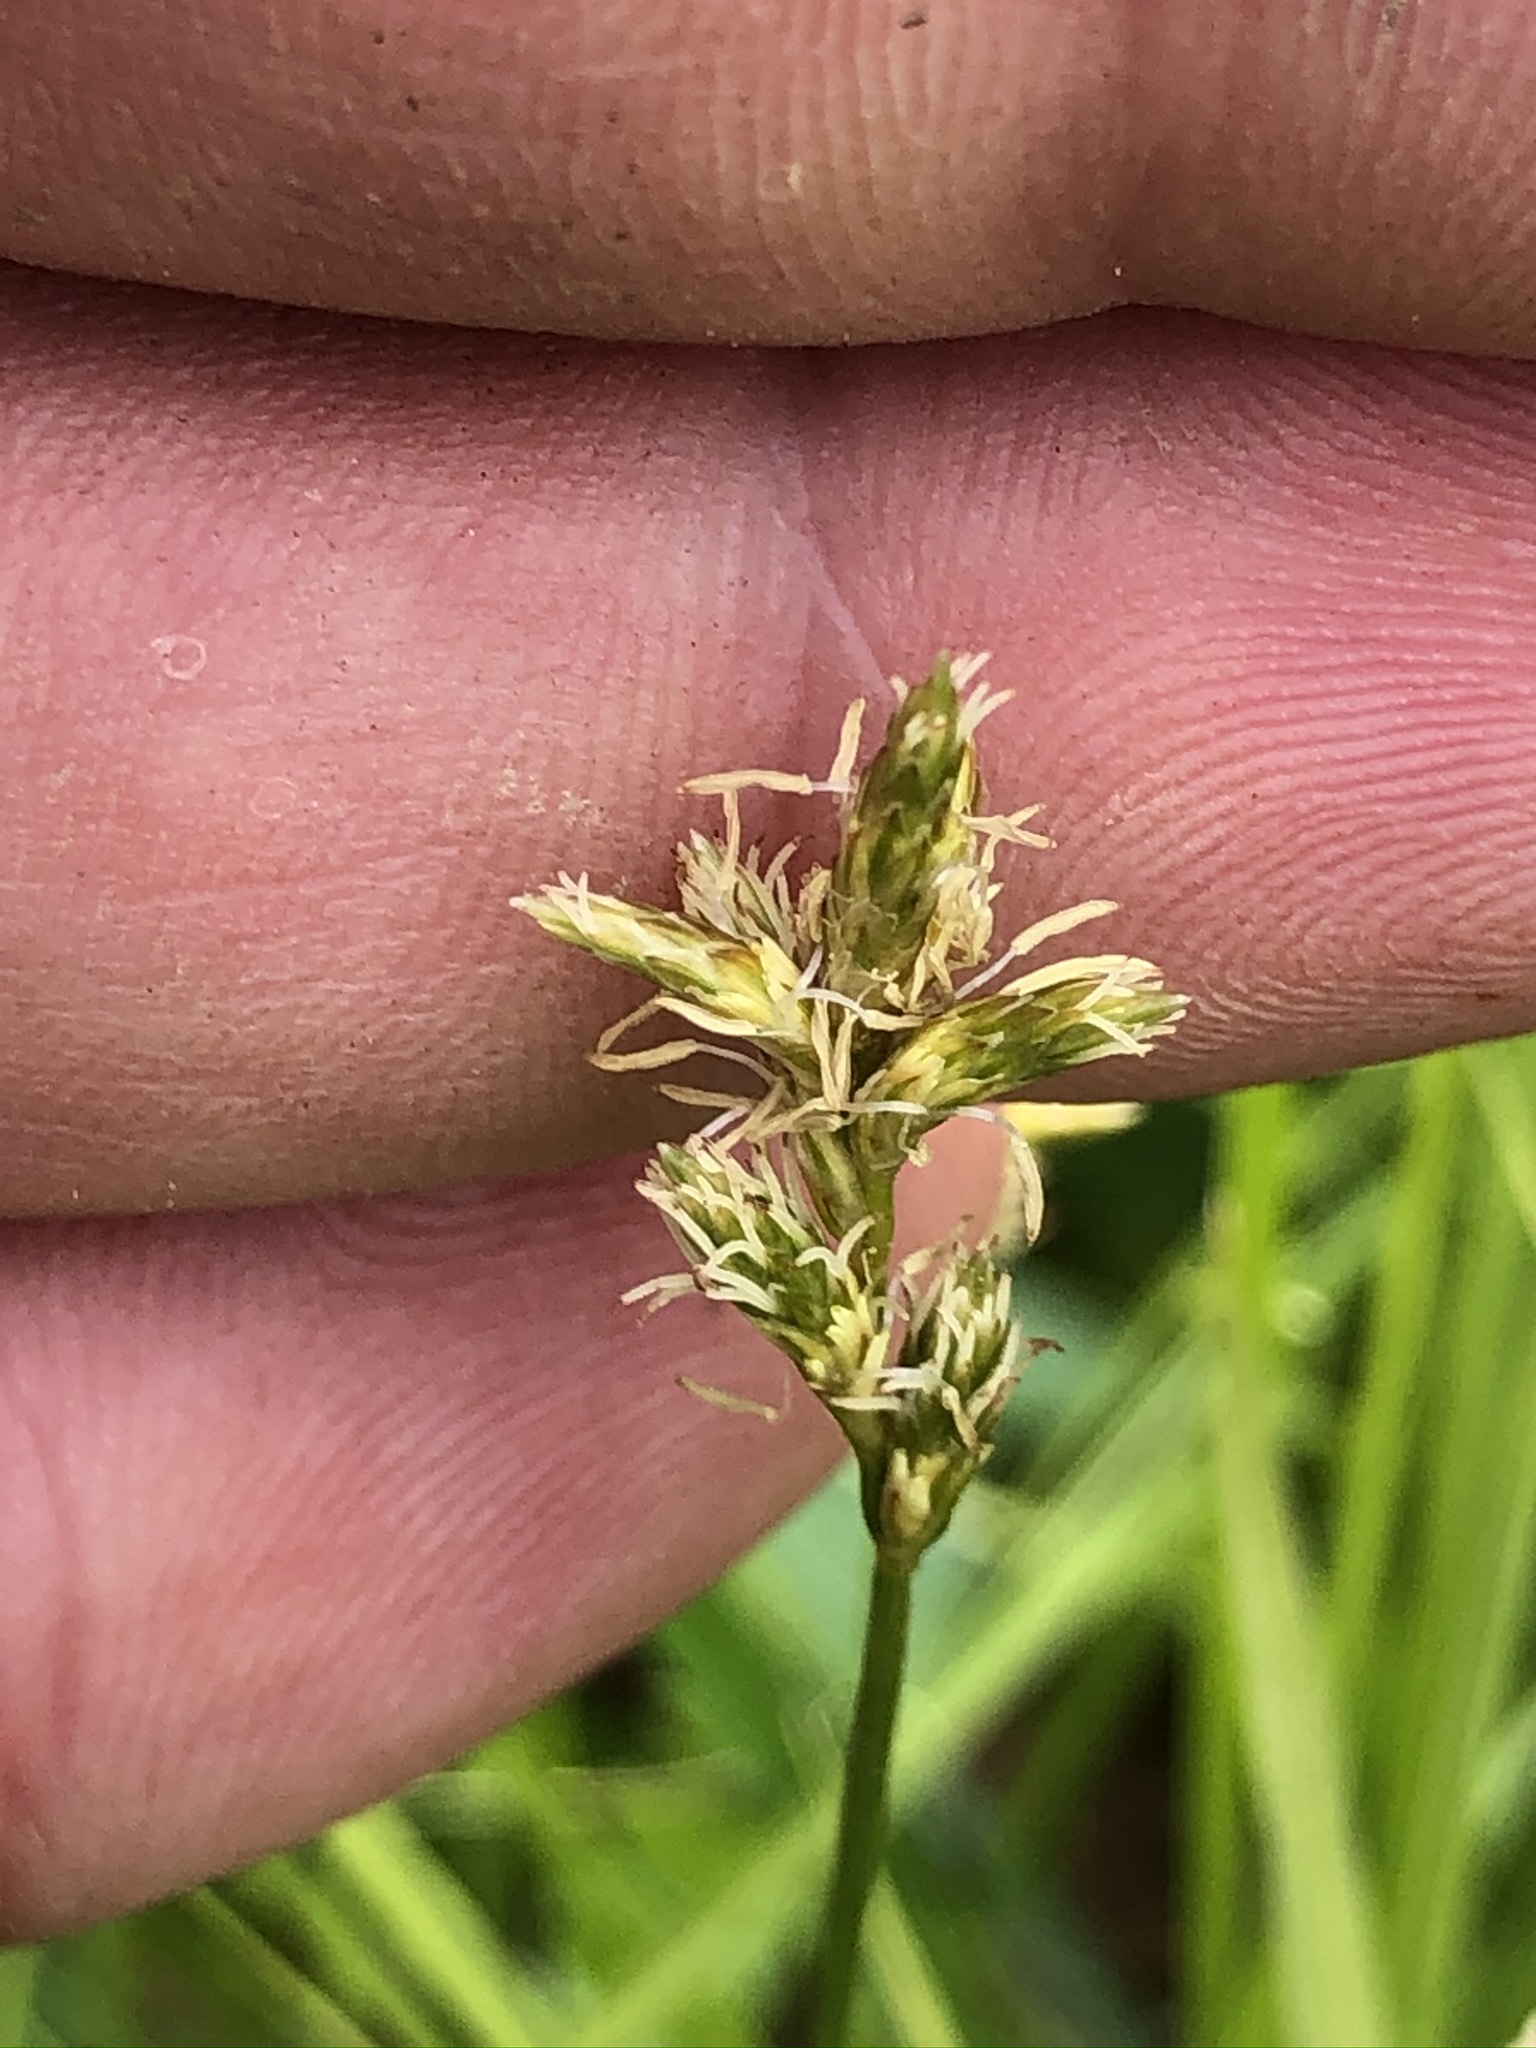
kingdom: Plantae
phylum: Tracheophyta
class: Liliopsida
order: Poales
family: Cyperaceae
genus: Carex
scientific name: Carex brizoides
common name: Quaking-grass sedge
